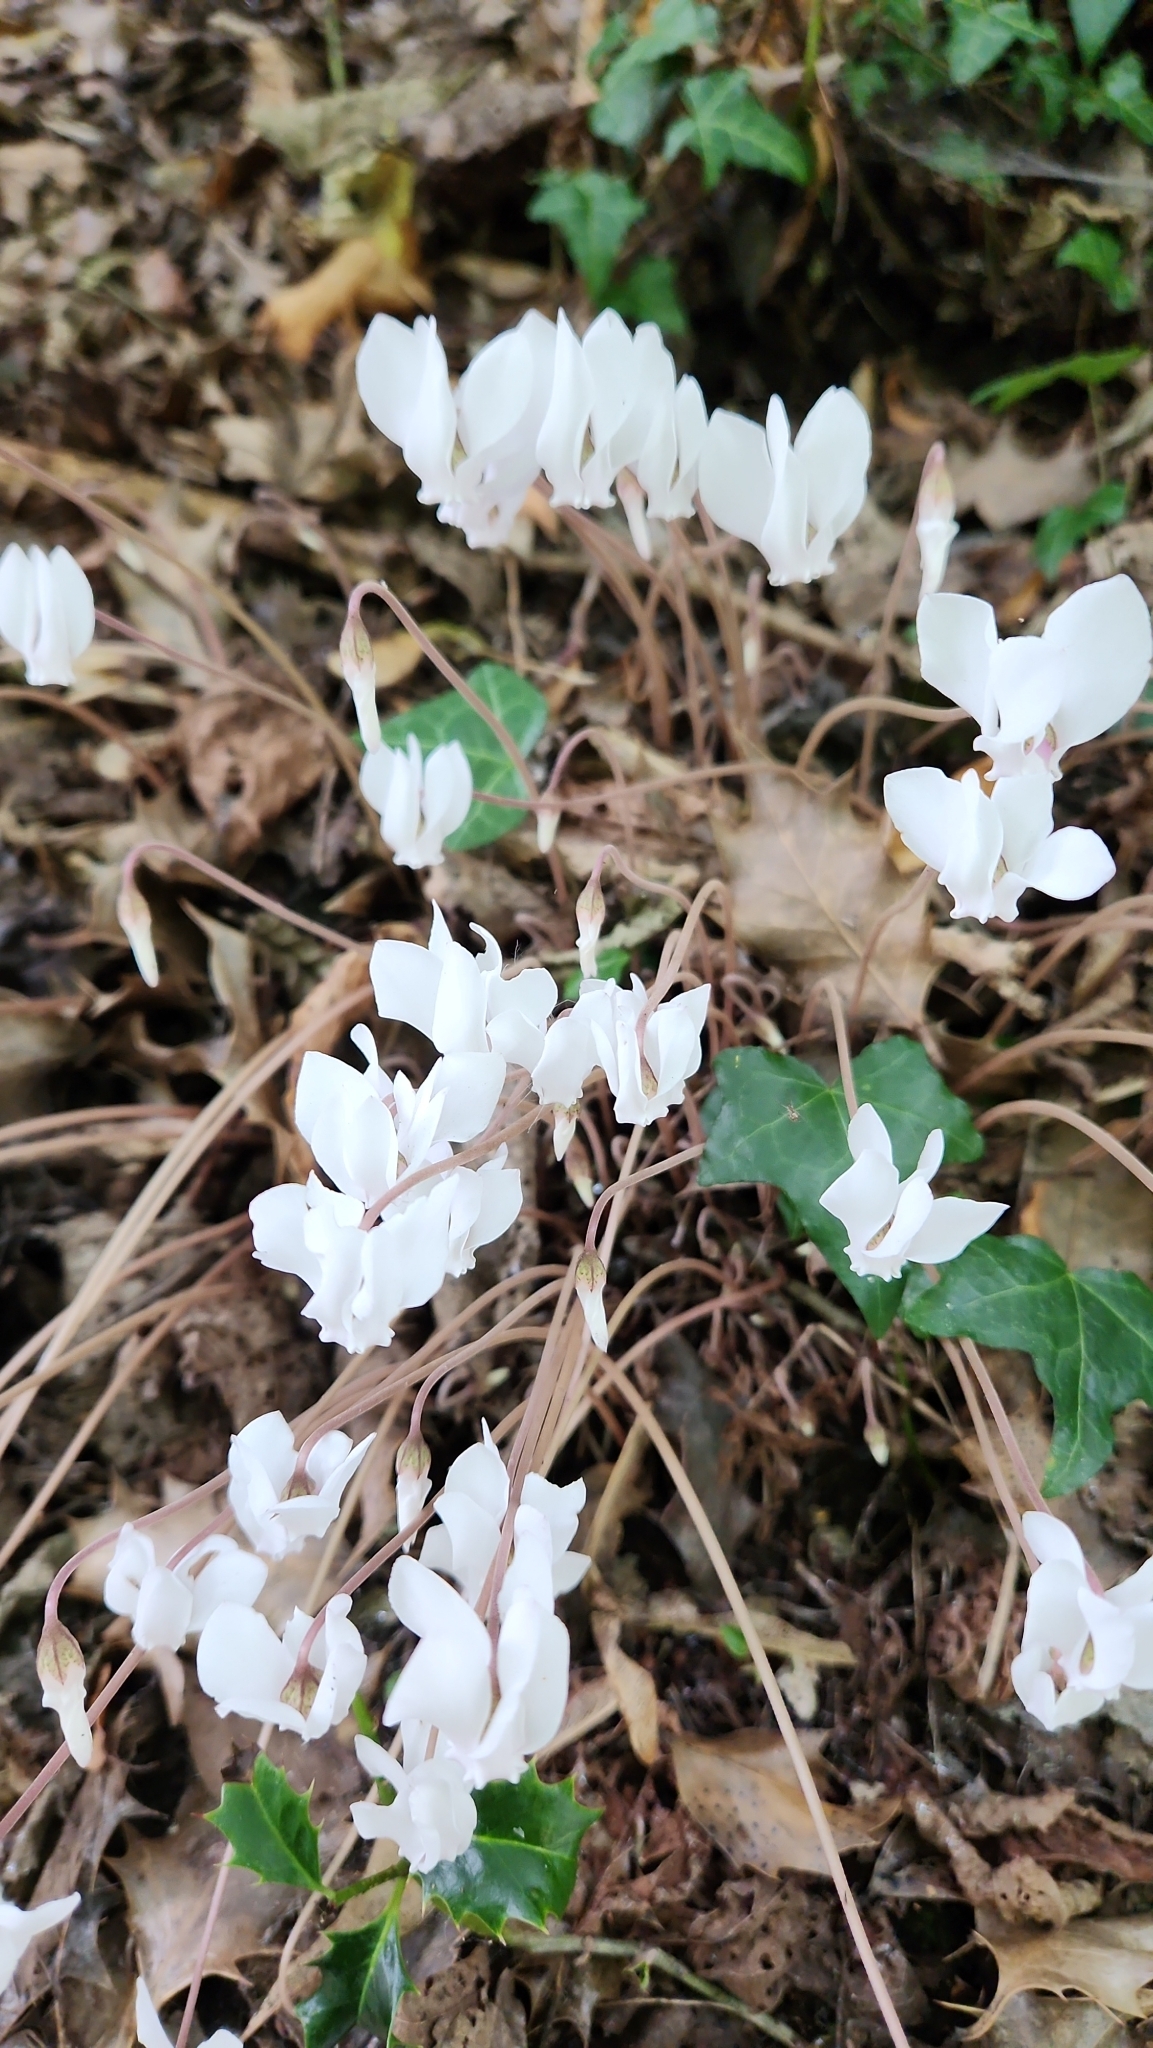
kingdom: Plantae
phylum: Tracheophyta
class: Magnoliopsida
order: Ericales
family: Primulaceae
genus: Cyclamen
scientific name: Cyclamen hederifolium
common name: Sowbread
